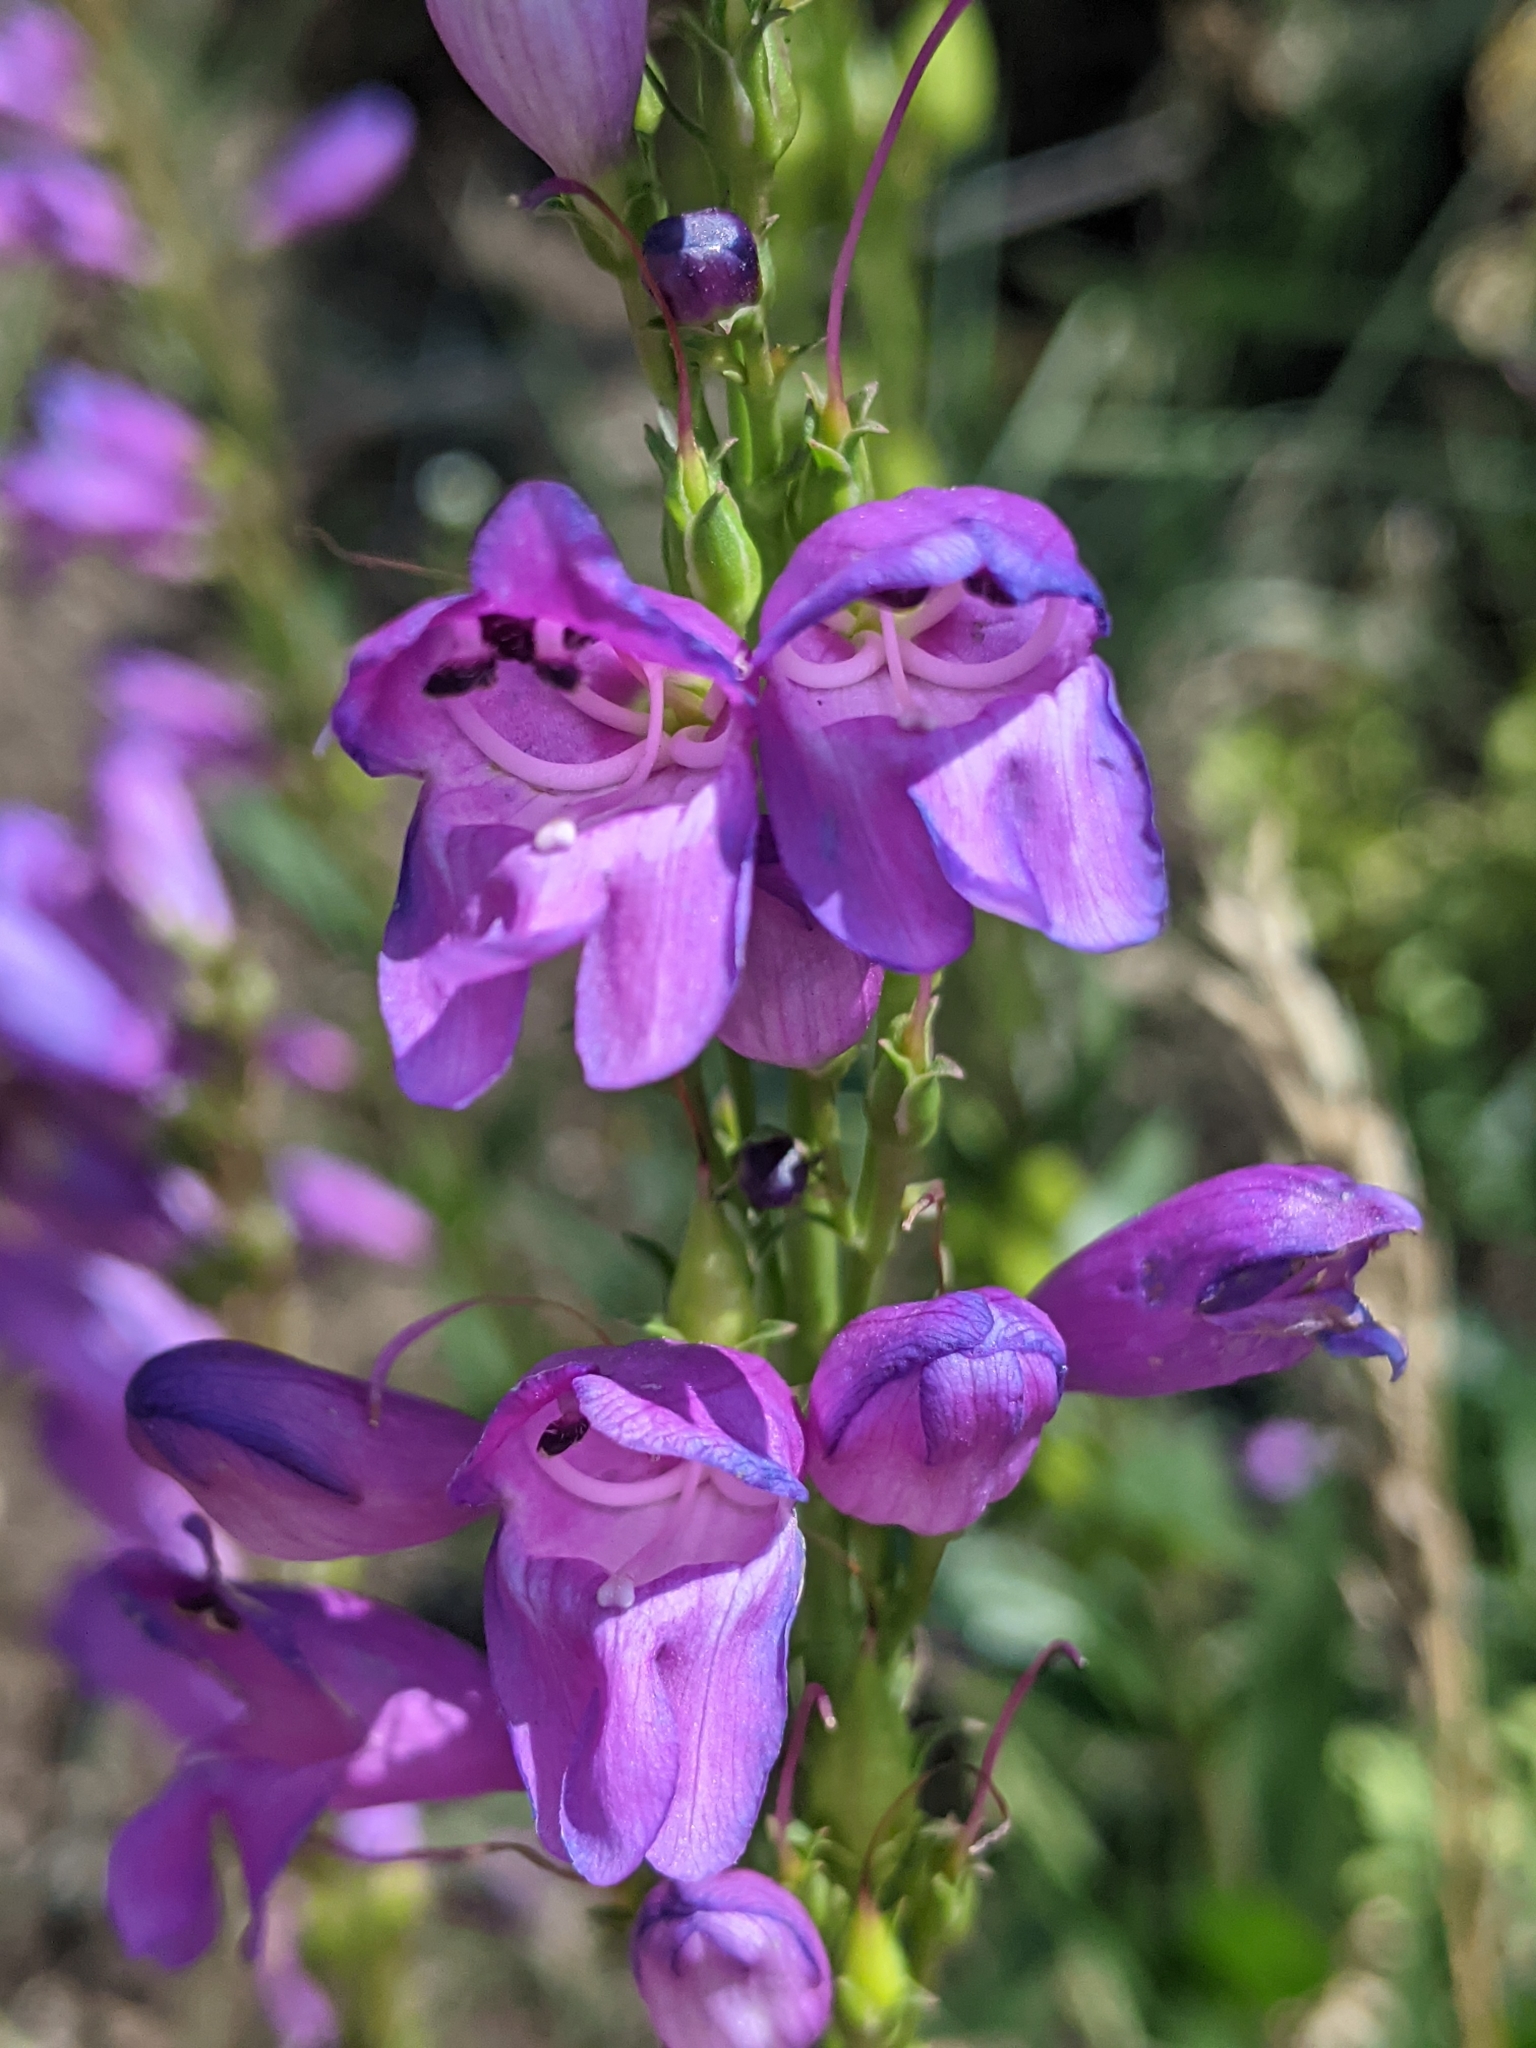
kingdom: Plantae
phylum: Tracheophyta
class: Magnoliopsida
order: Lamiales
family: Plantaginaceae
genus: Penstemon
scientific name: Penstemon strictus
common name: Rocky mountain penstemon
